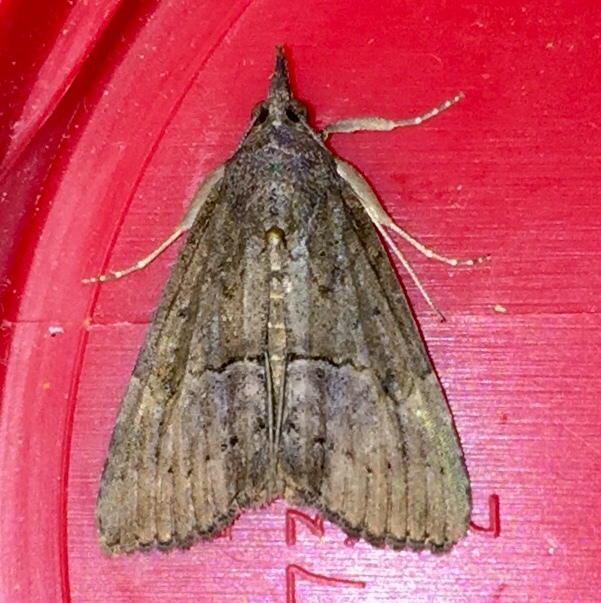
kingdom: Animalia
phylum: Arthropoda
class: Insecta
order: Lepidoptera
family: Erebidae
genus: Hypena
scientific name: Hypena scabra
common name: Green cloverworm
